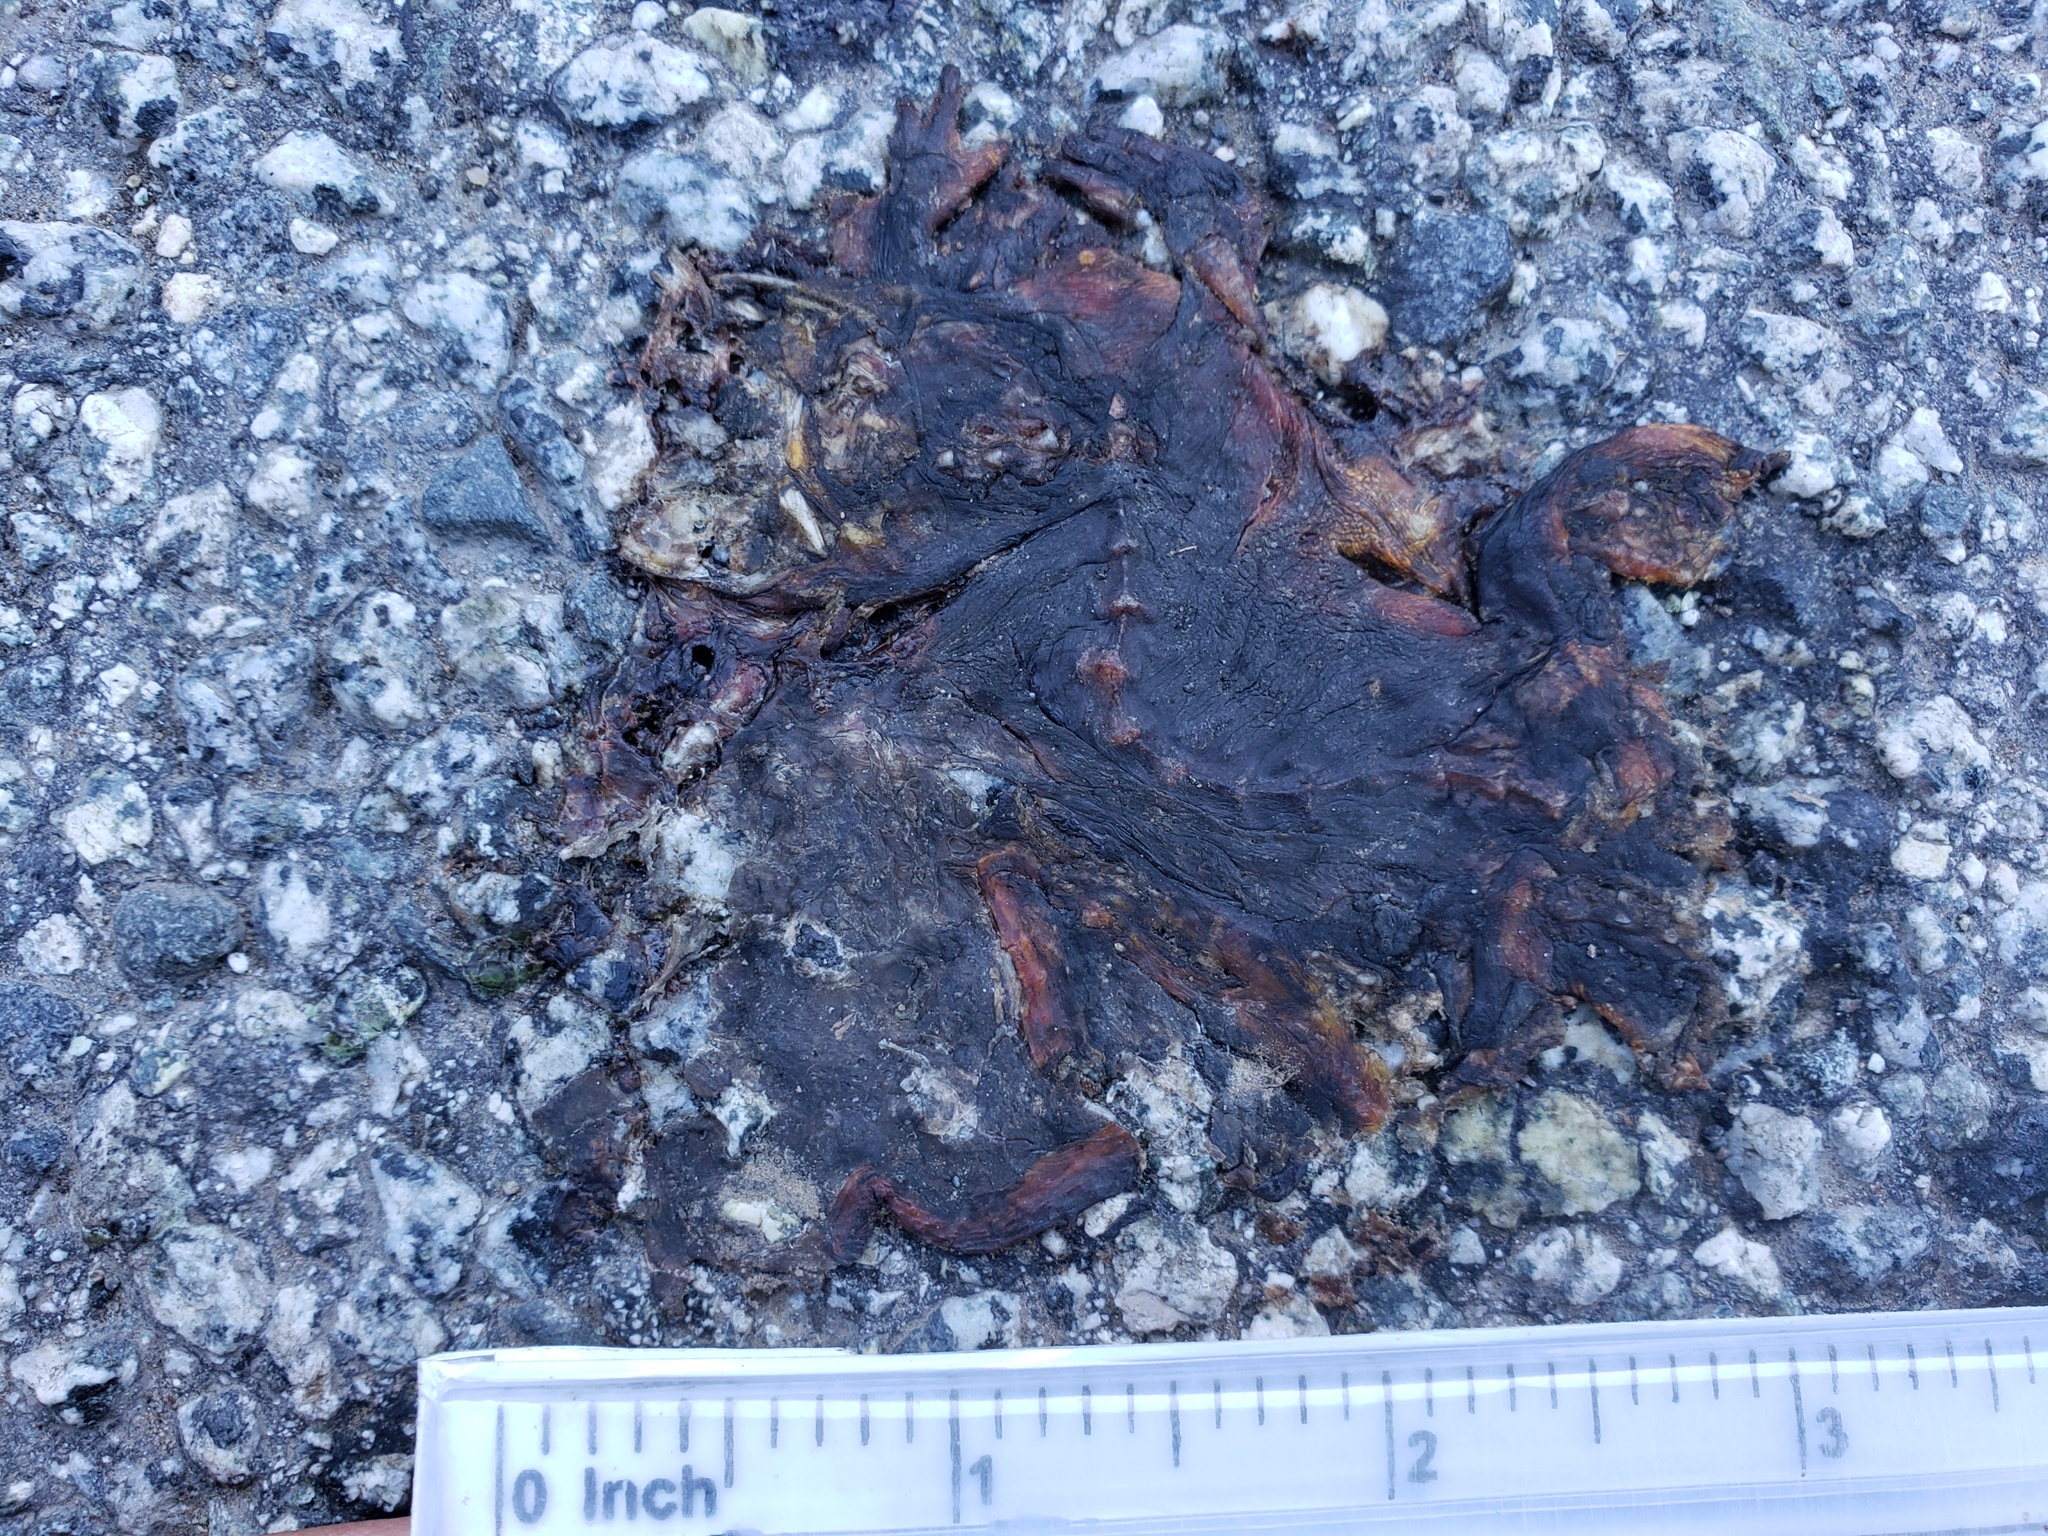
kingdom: Animalia
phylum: Chordata
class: Amphibia
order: Caudata
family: Salamandridae
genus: Taricha
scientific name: Taricha
